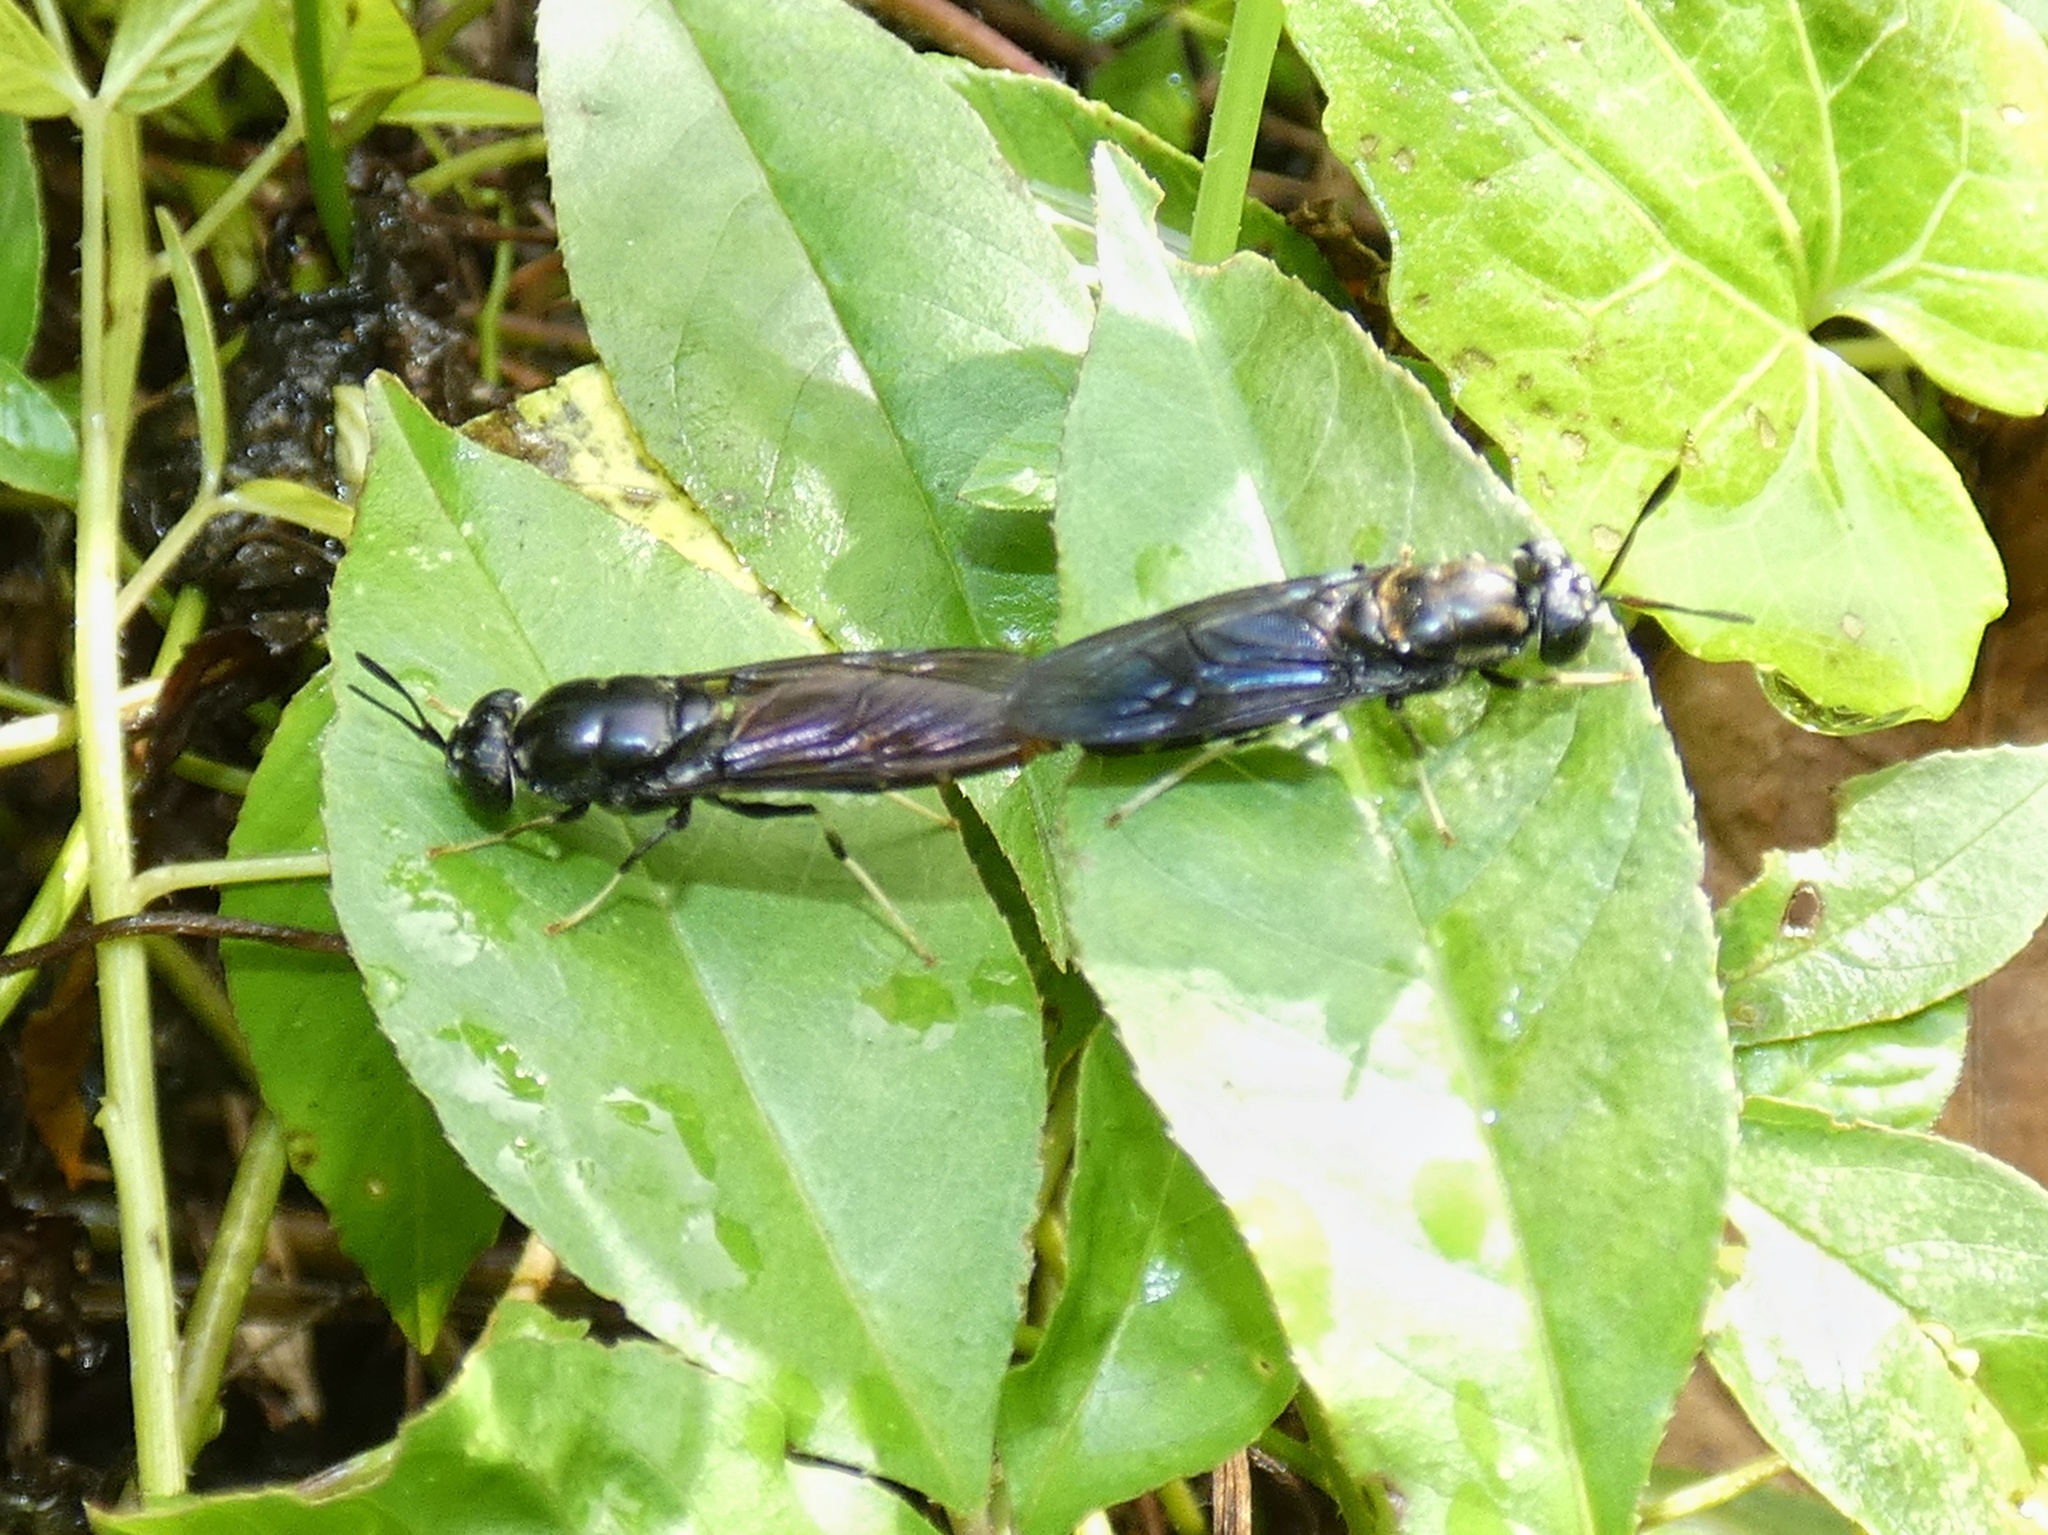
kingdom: Animalia
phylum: Arthropoda
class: Insecta
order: Diptera
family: Stratiomyidae
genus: Hermetia
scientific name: Hermetia illucens
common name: Black soldier fly
